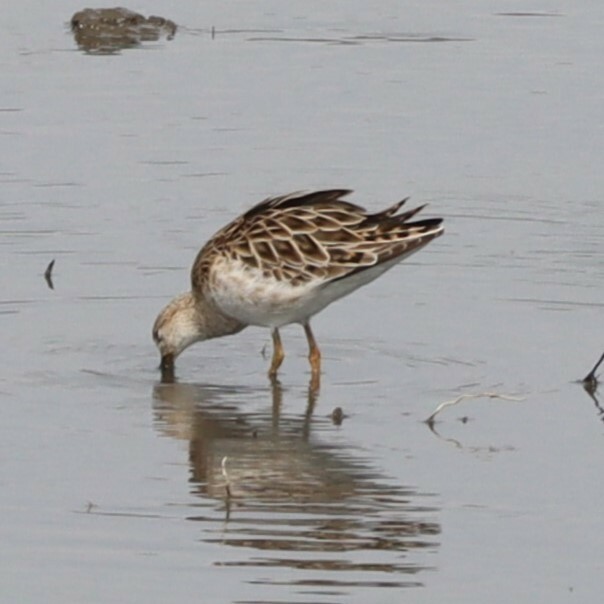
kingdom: Animalia
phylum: Chordata
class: Aves
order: Charadriiformes
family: Scolopacidae
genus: Calidris
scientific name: Calidris pugnax
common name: Ruff
